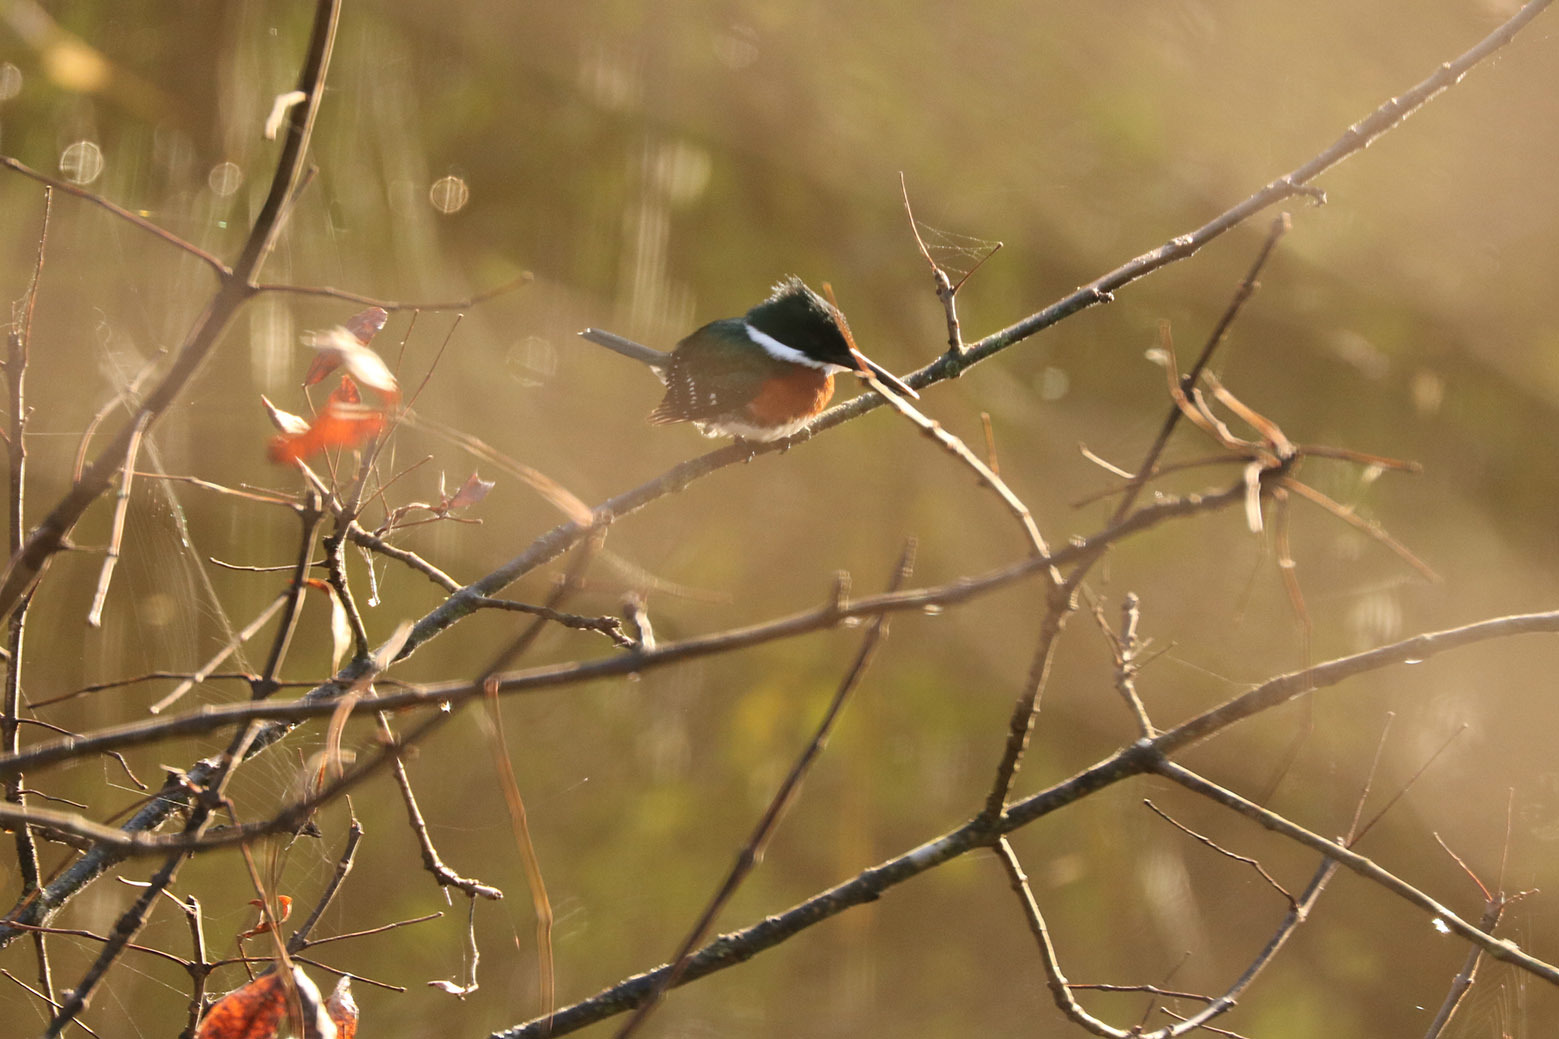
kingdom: Animalia
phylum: Chordata
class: Aves
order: Coraciiformes
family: Alcedinidae
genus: Chloroceryle
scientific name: Chloroceryle americana
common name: Green kingfisher
